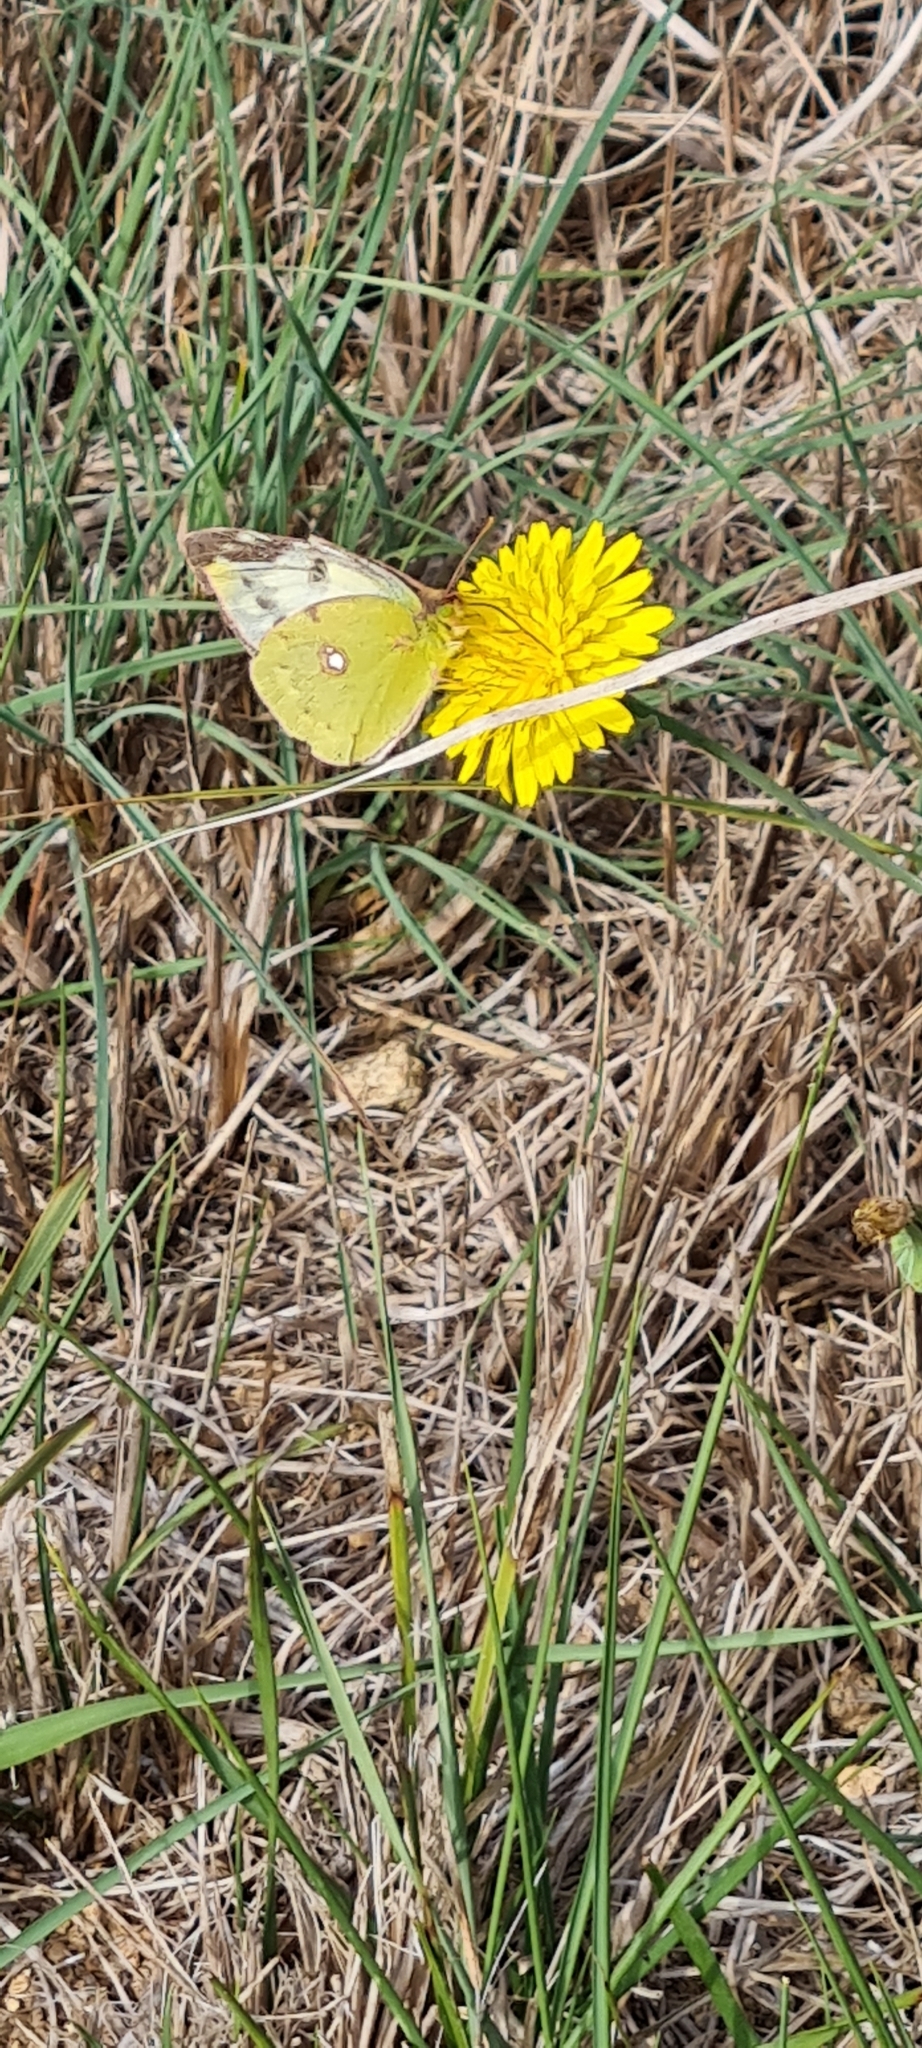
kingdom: Animalia
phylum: Arthropoda
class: Insecta
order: Lepidoptera
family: Pieridae
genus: Colias
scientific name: Colias alfacariensis
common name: Berger's clouded yellow
